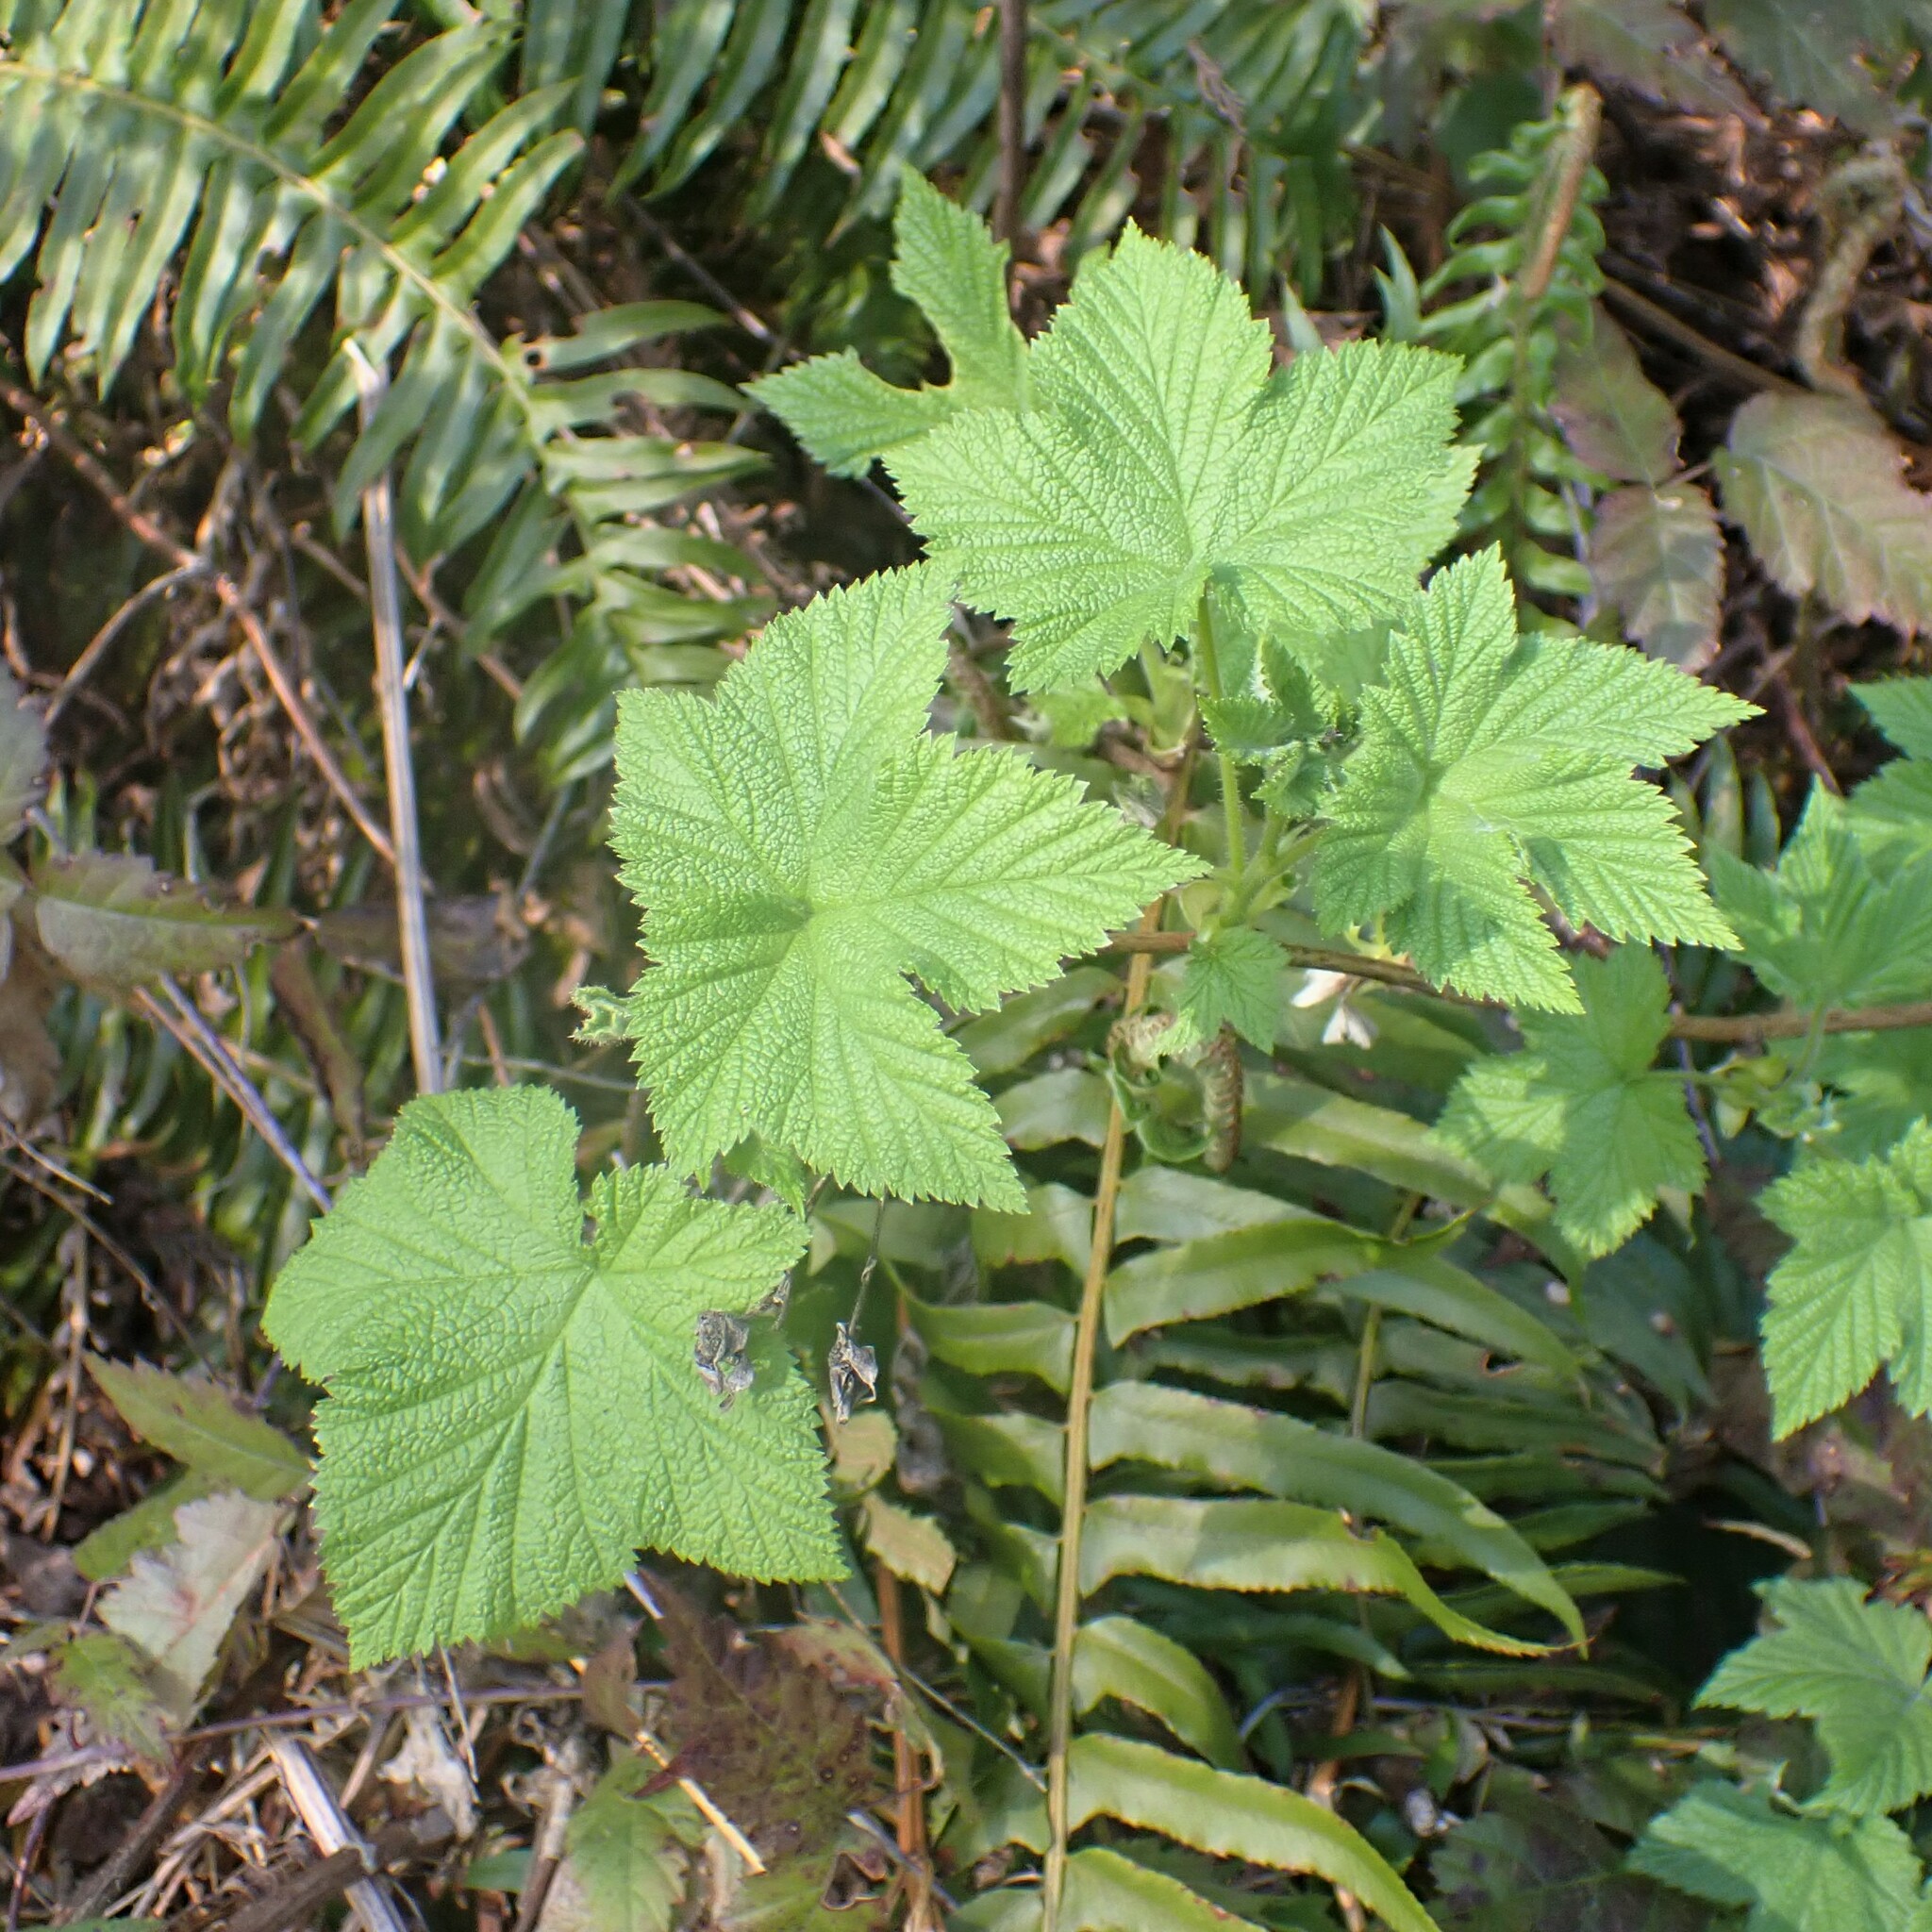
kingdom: Plantae
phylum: Tracheophyta
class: Magnoliopsida
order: Rosales
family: Rosaceae
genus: Rubus
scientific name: Rubus parviflorus
